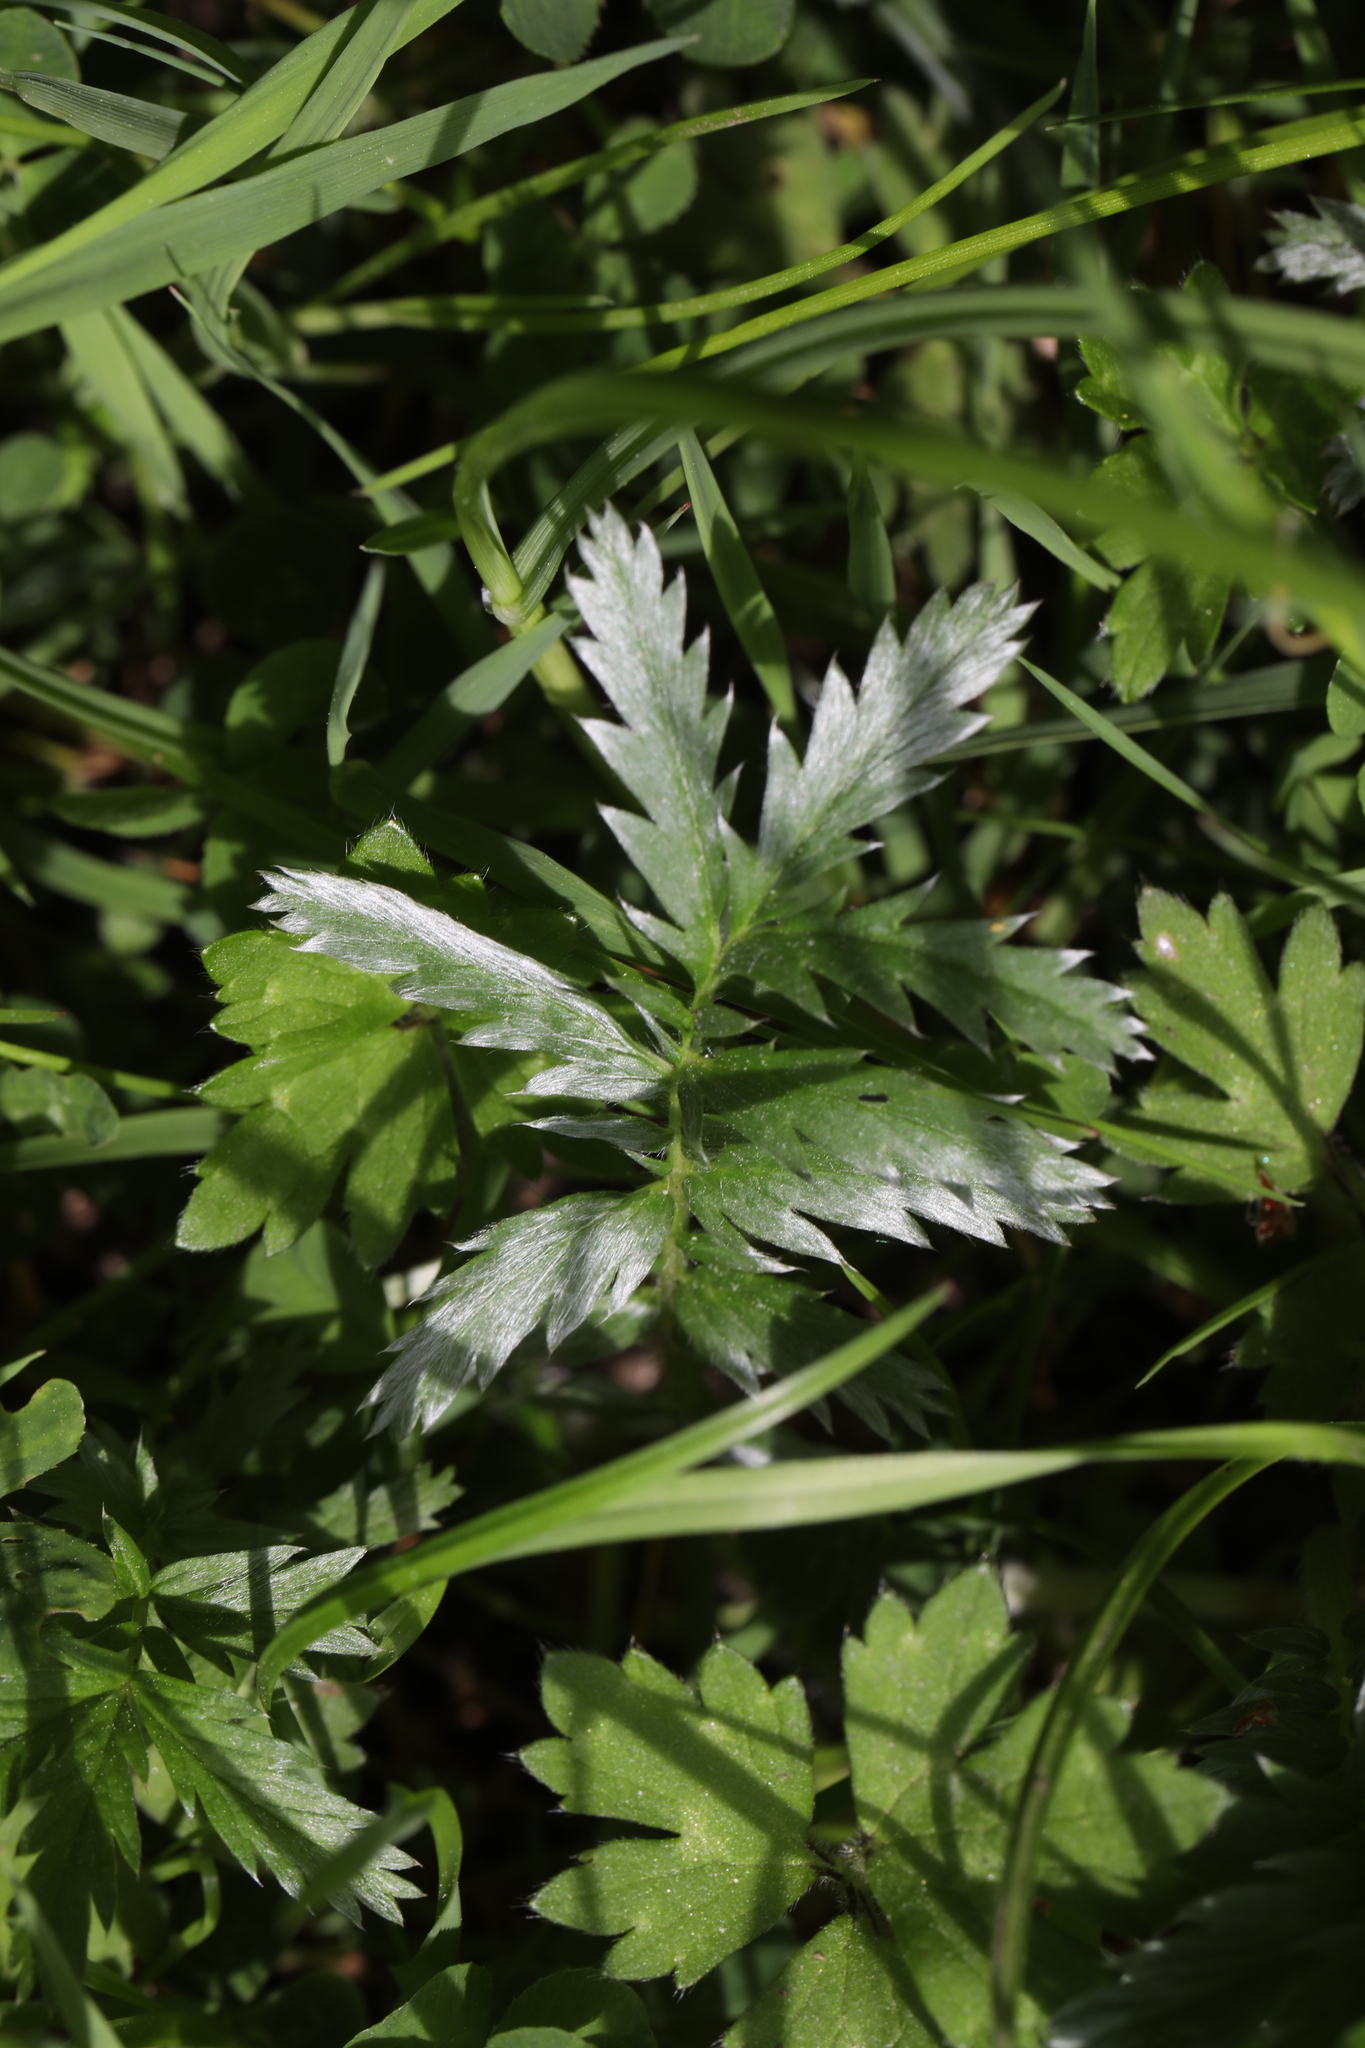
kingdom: Plantae
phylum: Tracheophyta
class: Magnoliopsida
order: Rosales
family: Rosaceae
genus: Argentina
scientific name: Argentina anserina
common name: Common silverweed
